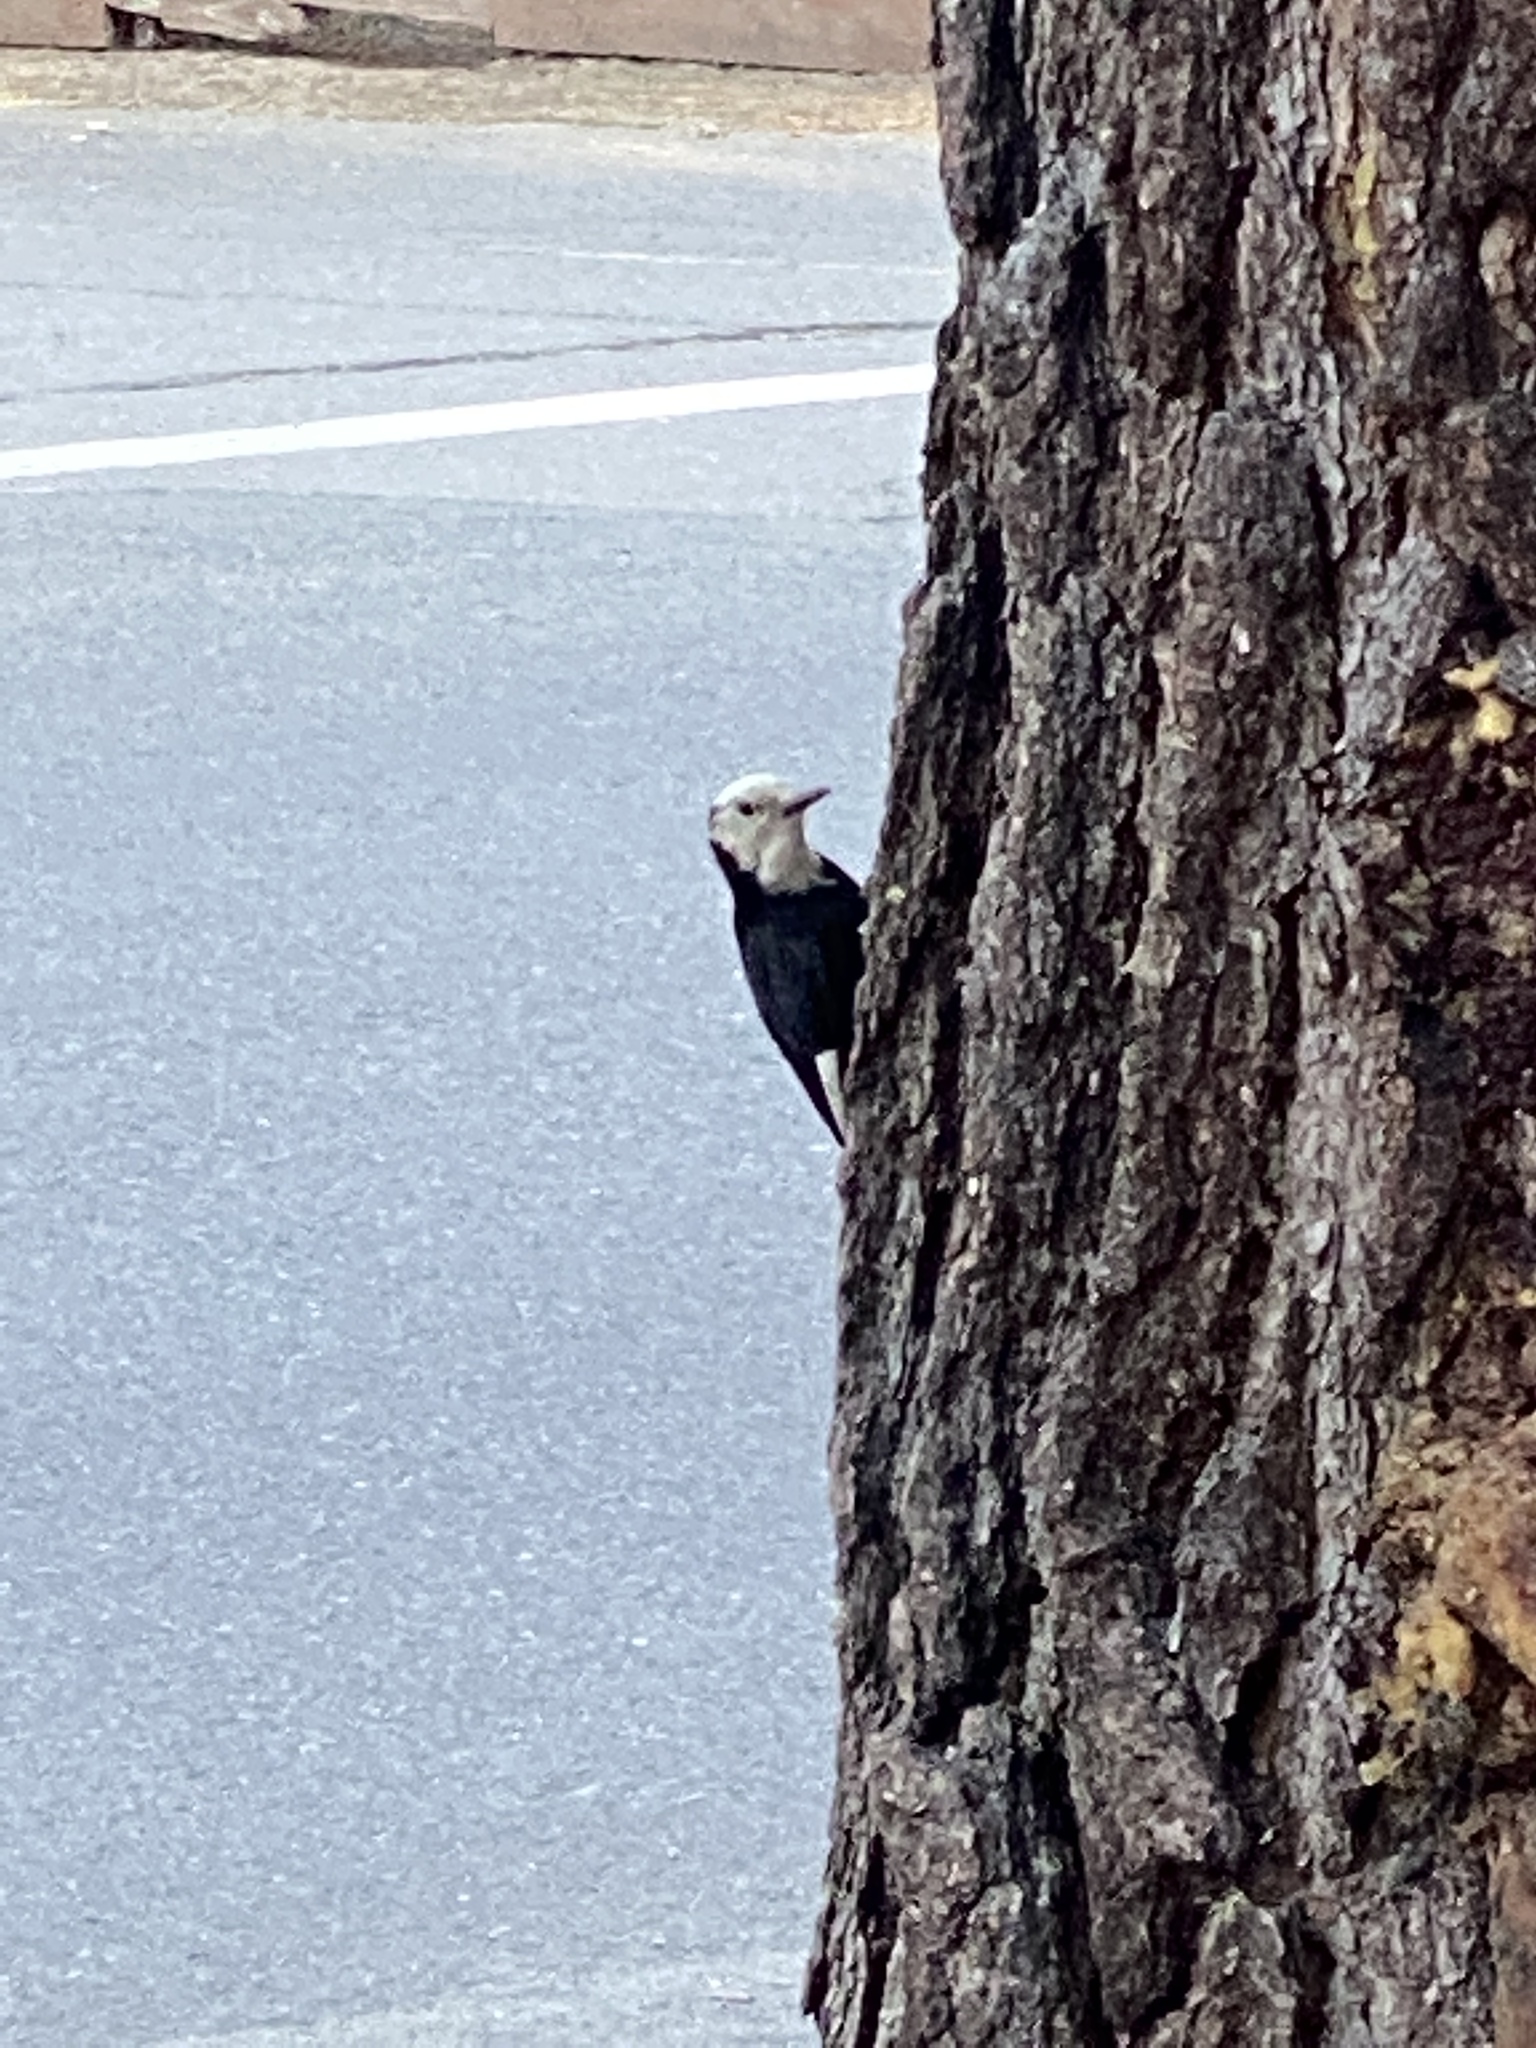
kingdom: Animalia
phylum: Chordata
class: Aves
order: Piciformes
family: Picidae
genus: Leuconotopicus
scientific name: Leuconotopicus albolarvatus
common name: White-headed woodpecker
